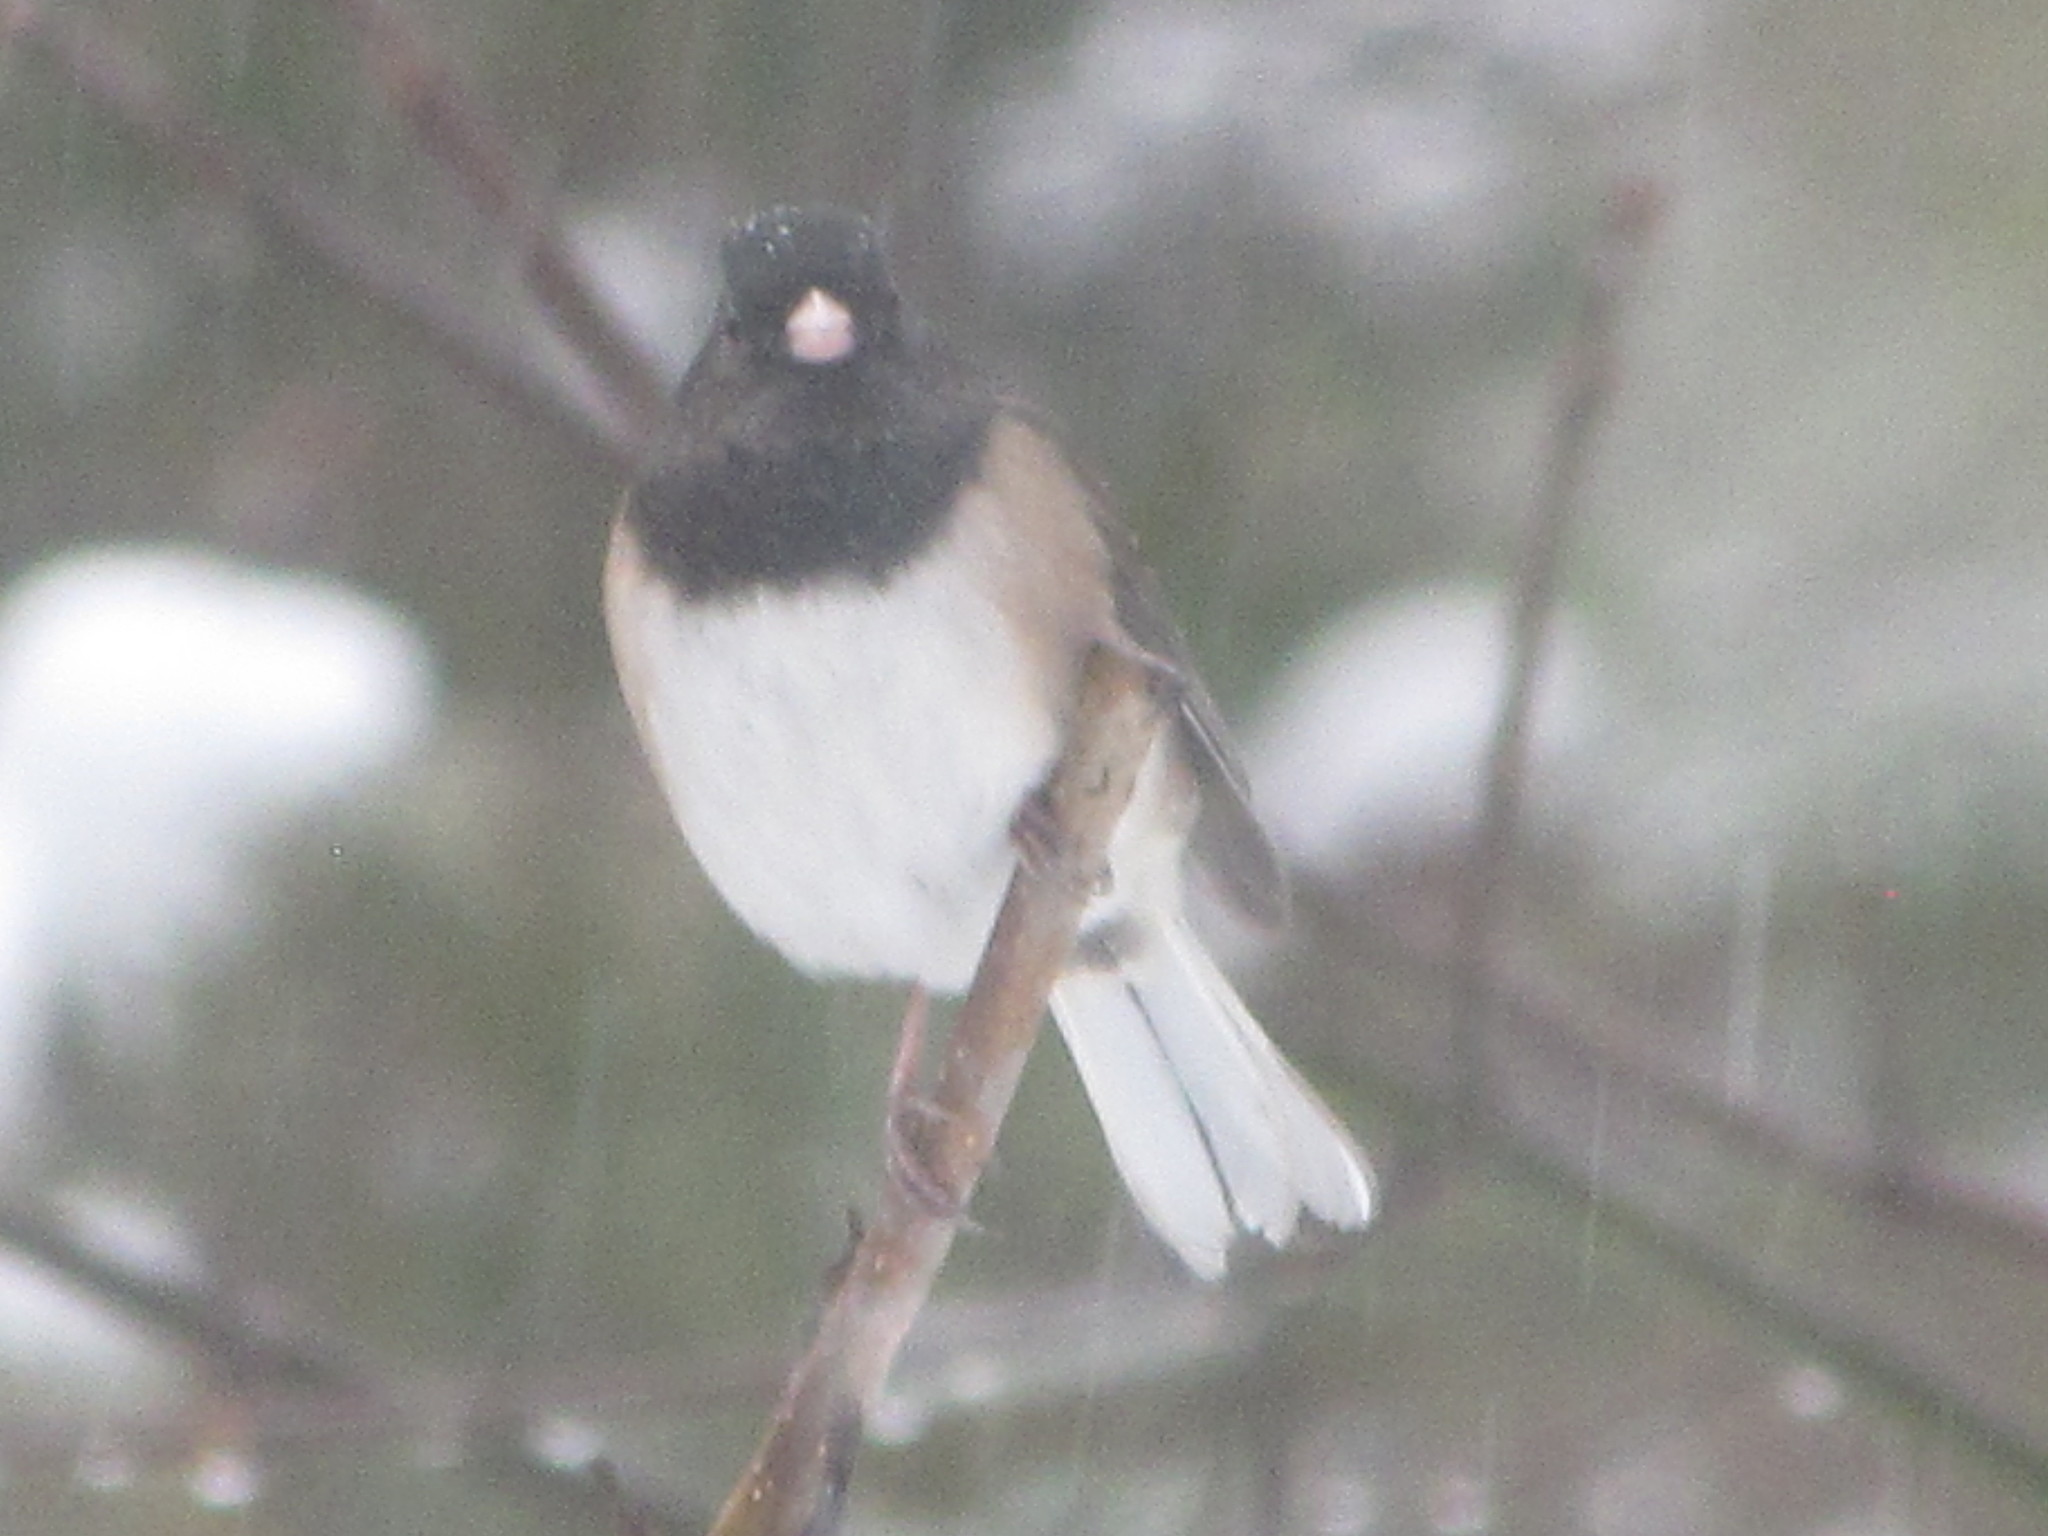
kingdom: Animalia
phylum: Chordata
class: Aves
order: Passeriformes
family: Passerellidae
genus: Junco
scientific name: Junco hyemalis
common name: Dark-eyed junco
